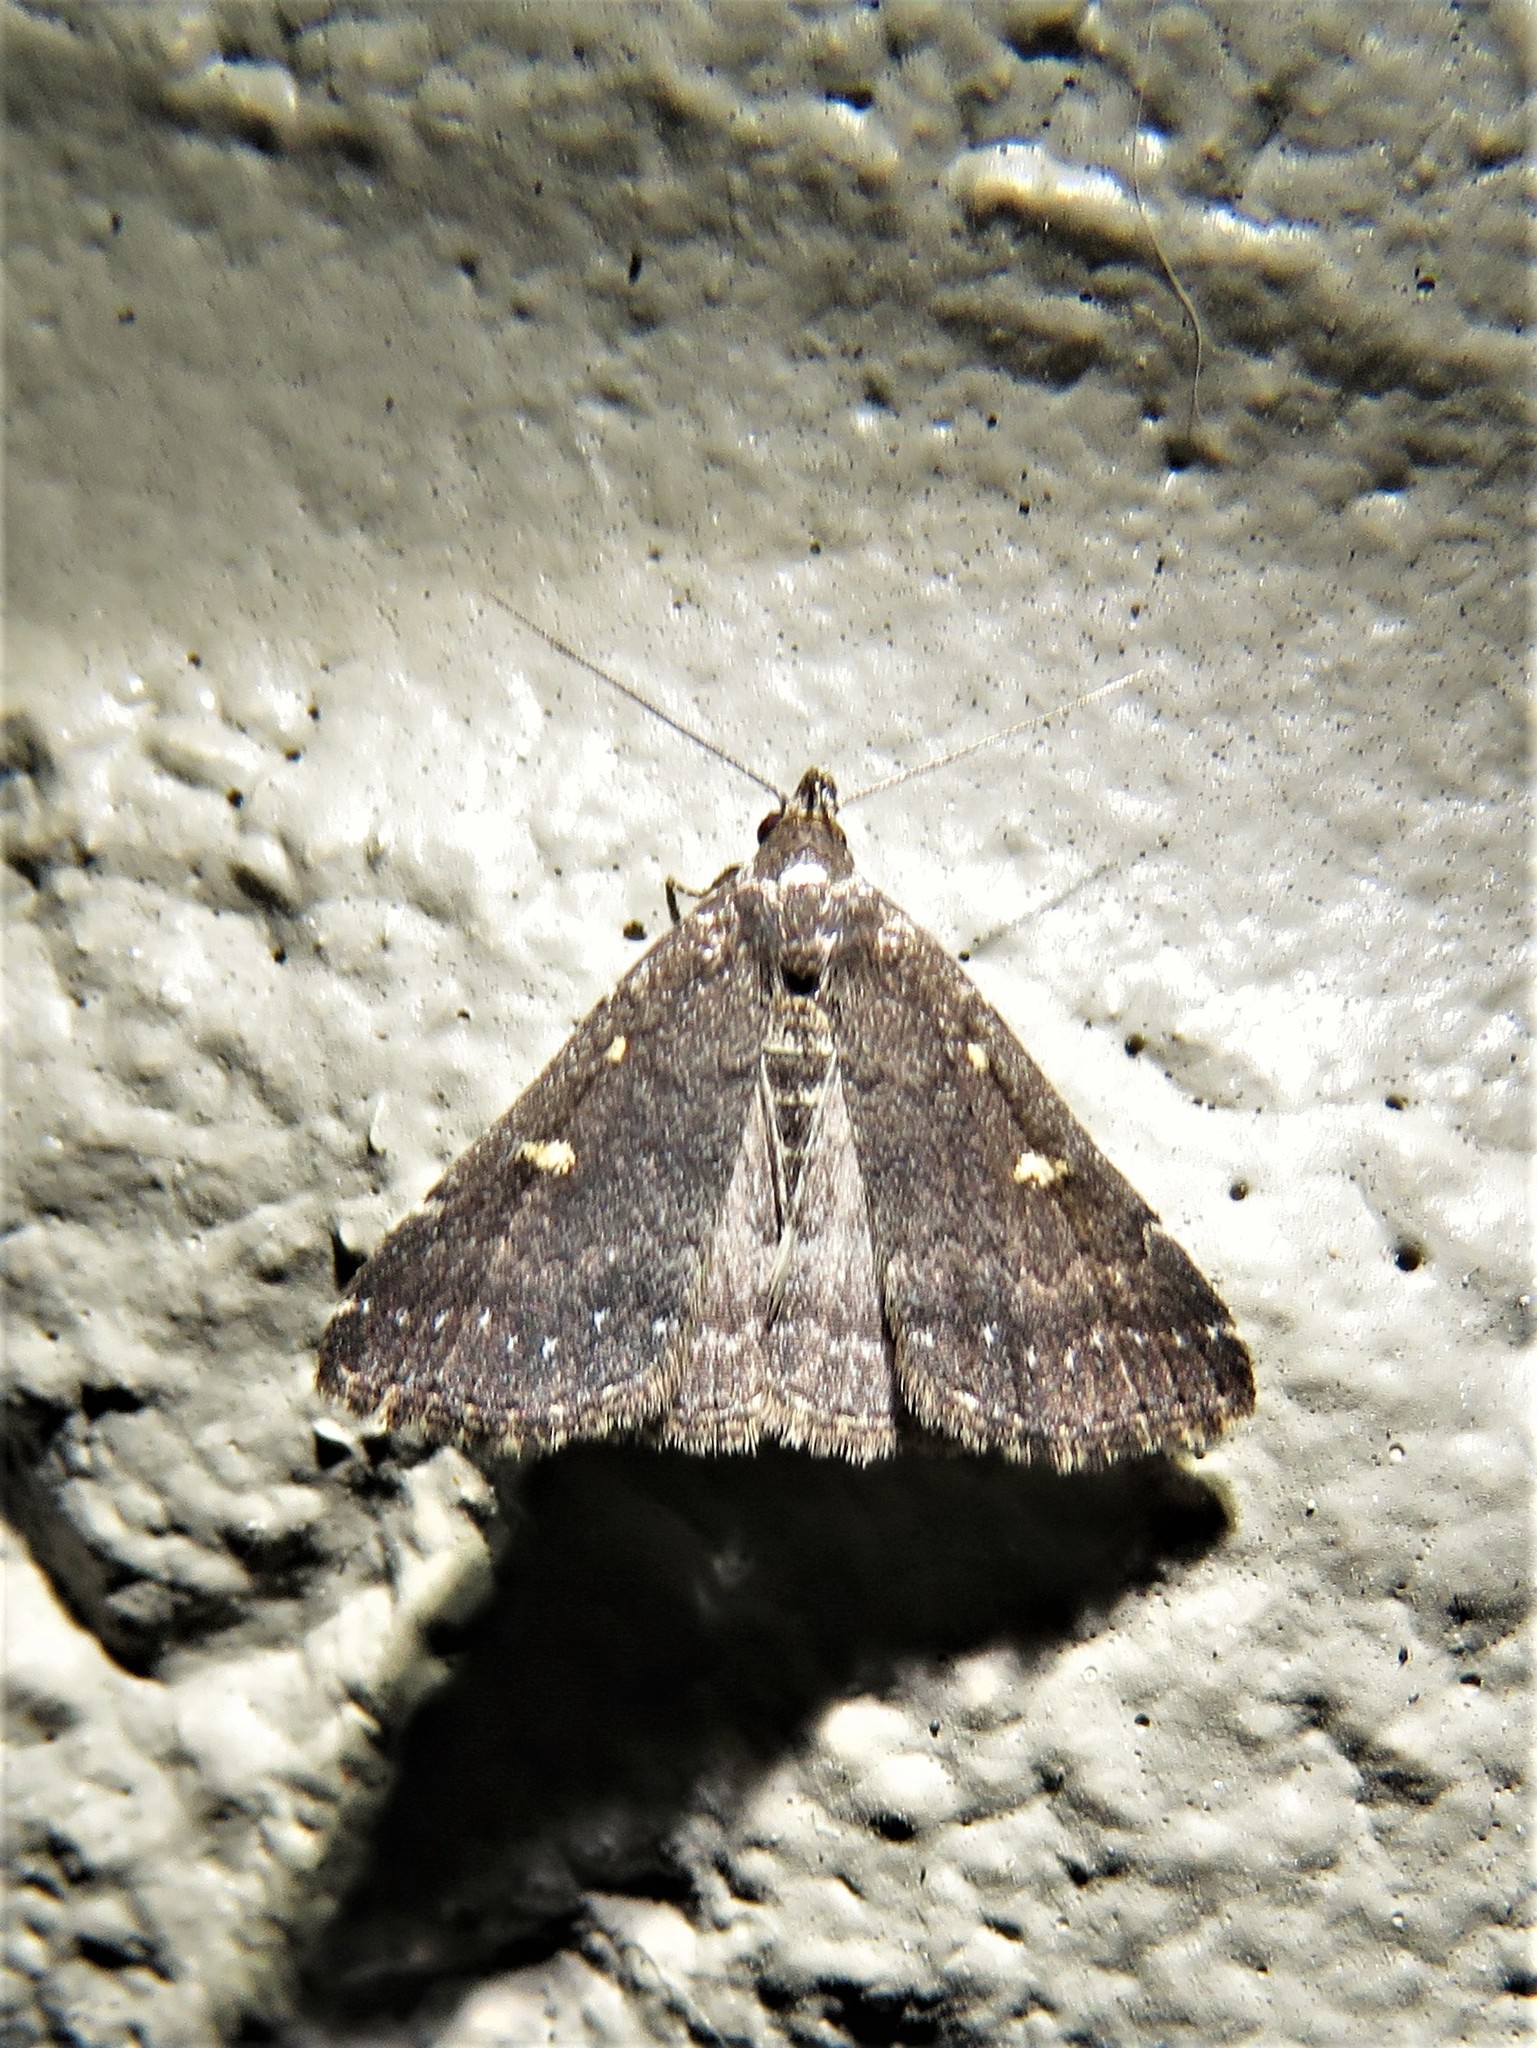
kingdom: Animalia
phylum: Arthropoda
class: Insecta
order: Lepidoptera
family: Erebidae
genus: Tetanolita
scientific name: Tetanolita mynesalis
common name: Smoky tetanolita moth
